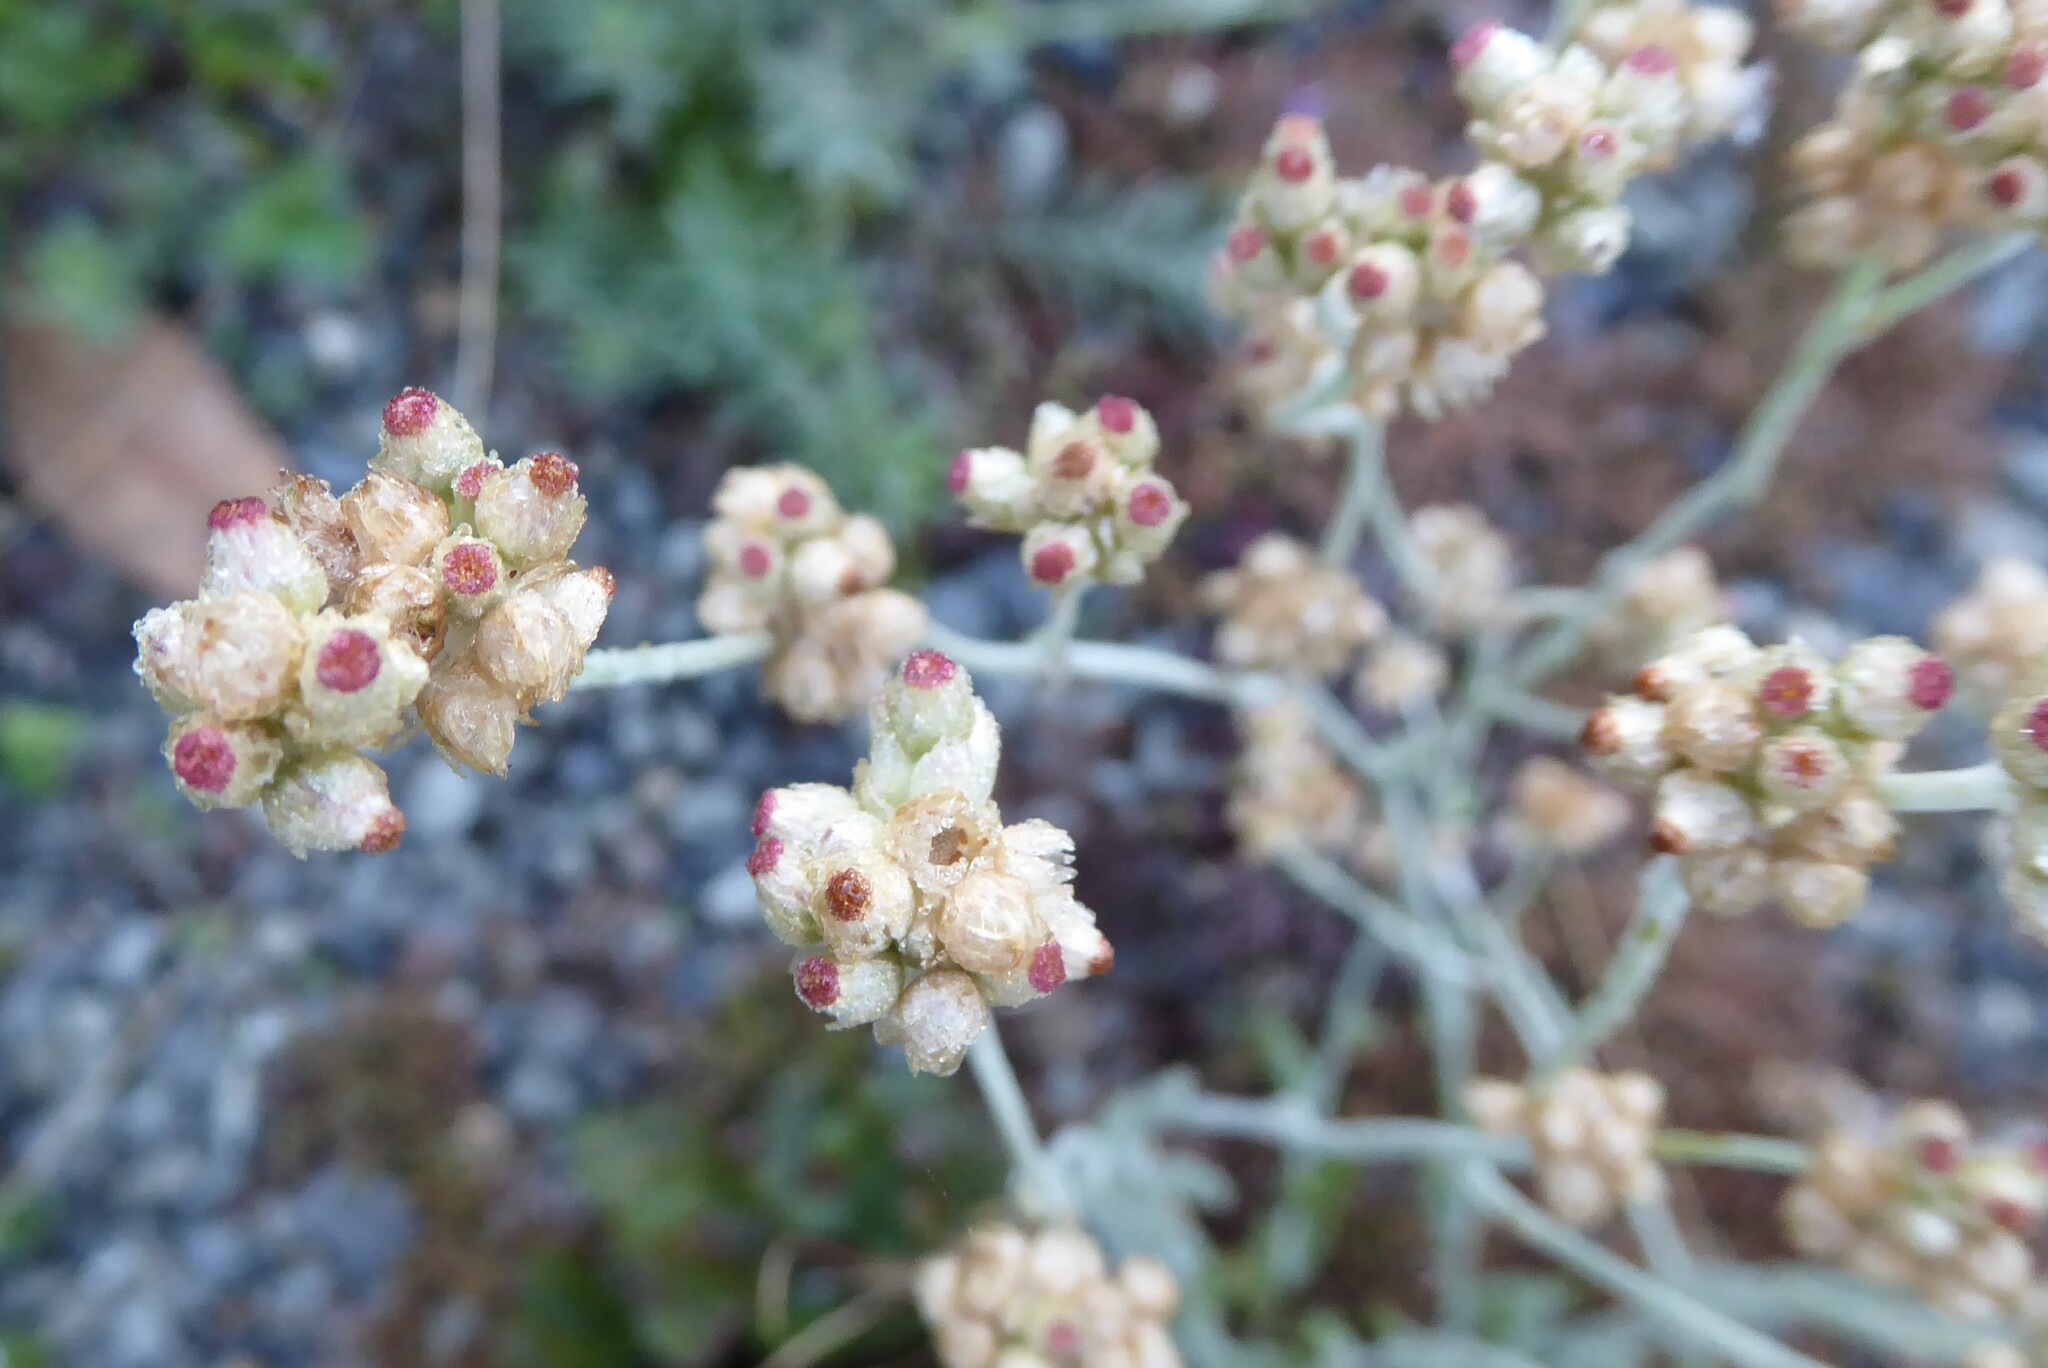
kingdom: Plantae
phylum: Tracheophyta
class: Magnoliopsida
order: Asterales
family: Asteraceae
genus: Helichrysum
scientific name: Helichrysum luteoalbum
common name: Daisy
